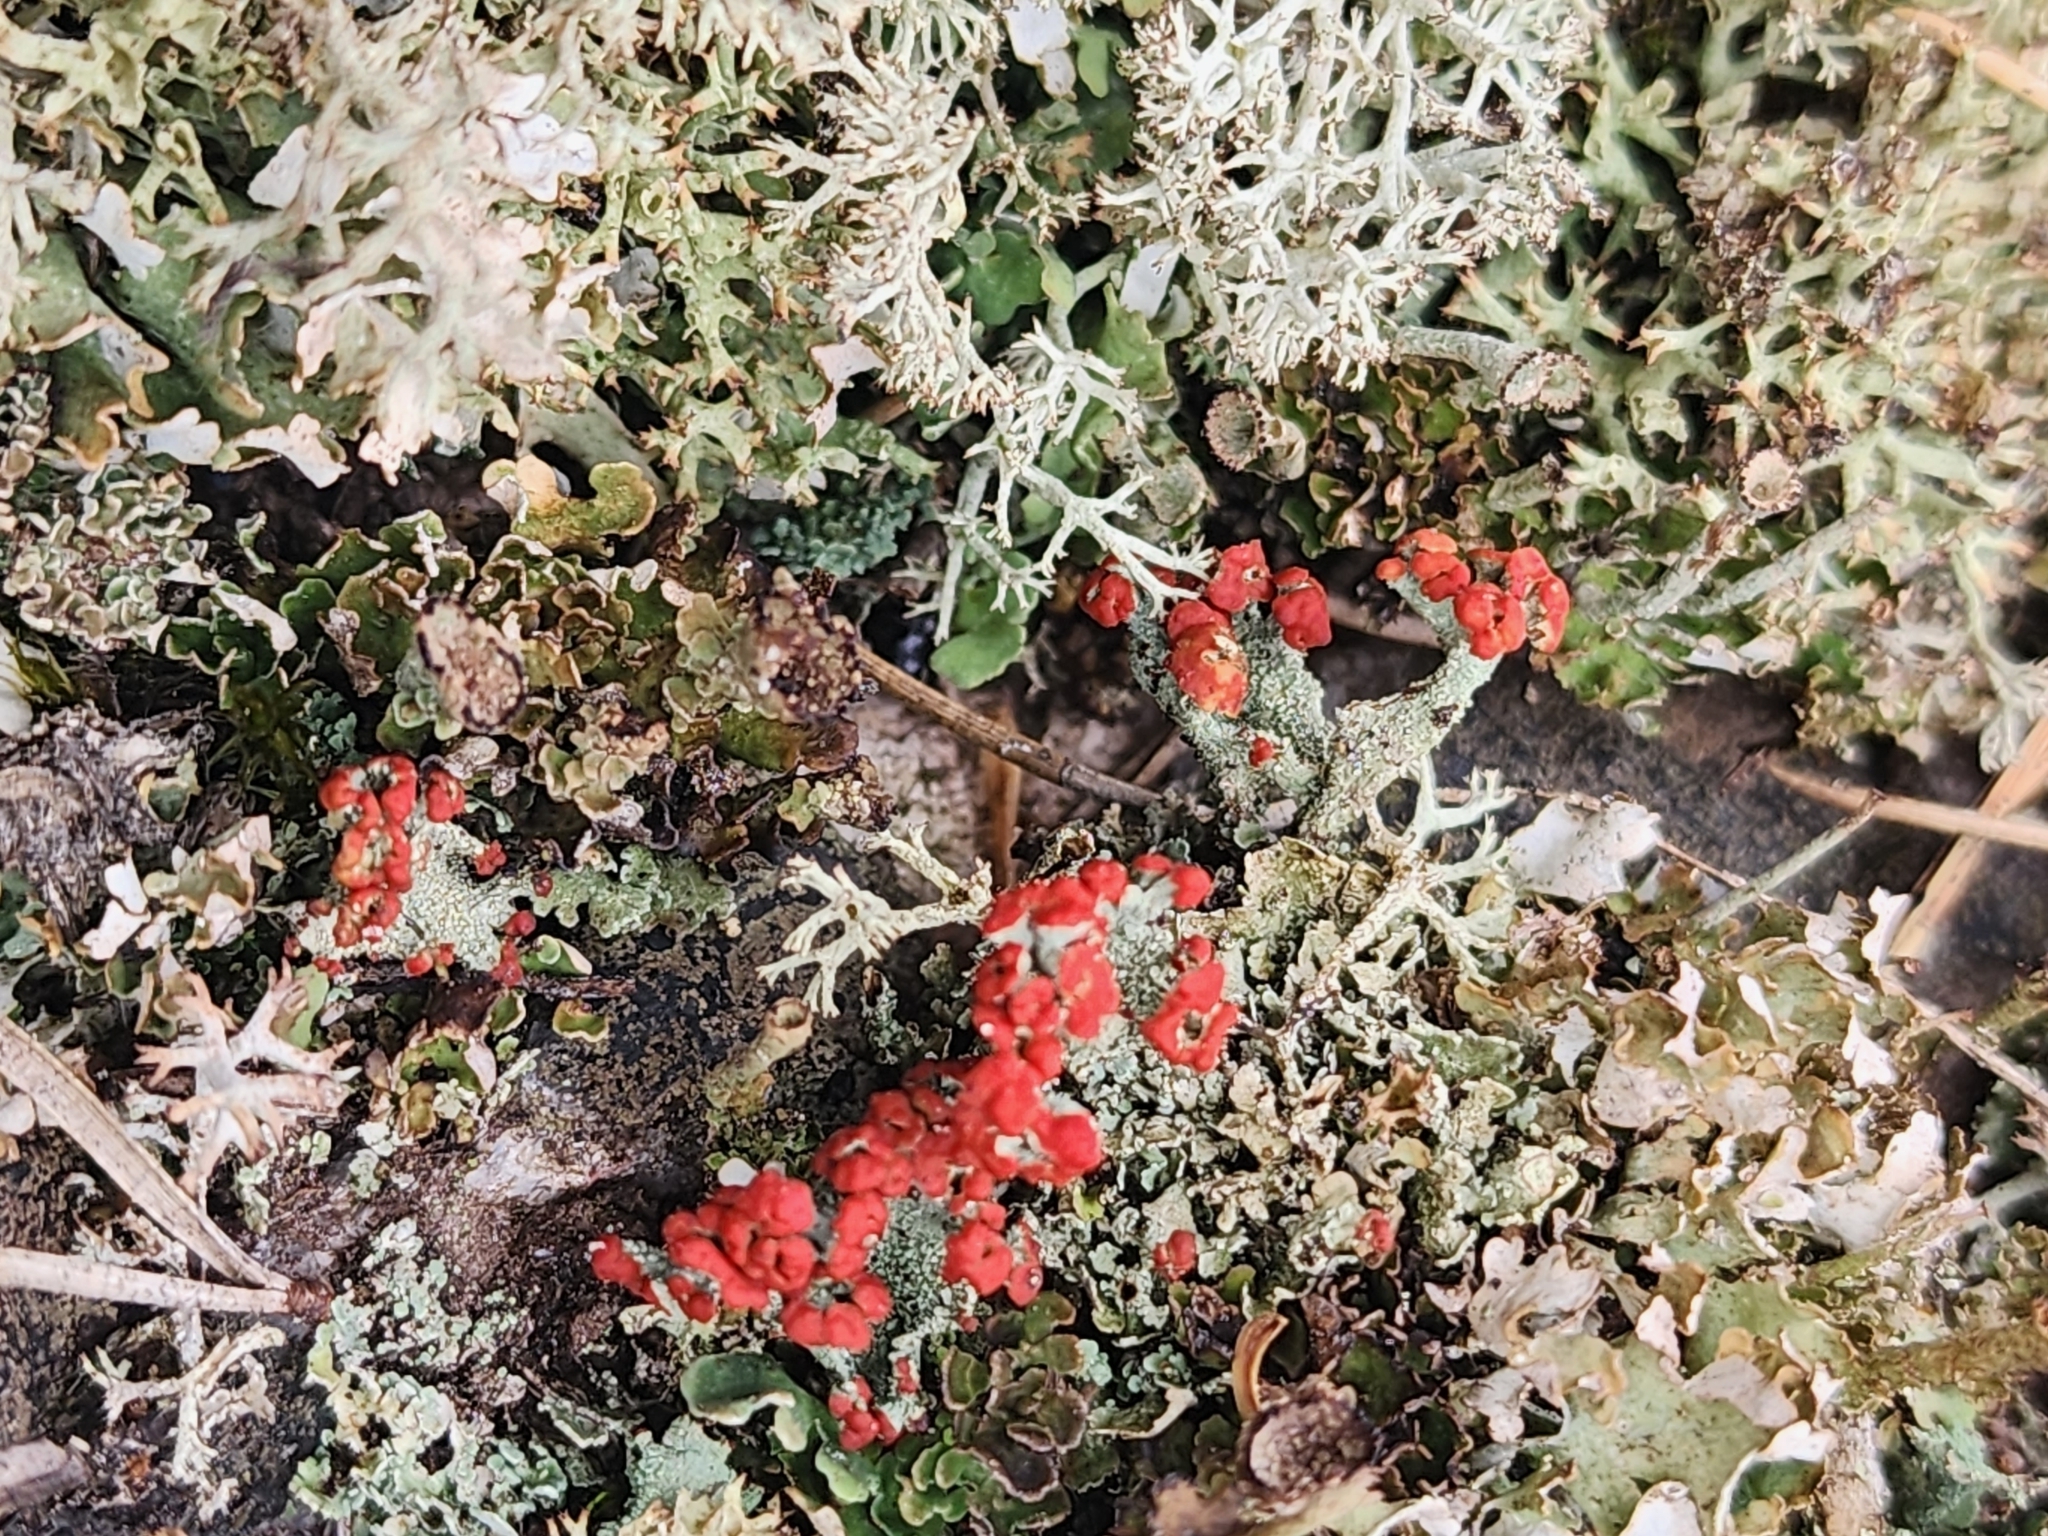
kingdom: Fungi
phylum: Ascomycota
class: Lecanoromycetes
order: Lecanorales
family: Cladoniaceae
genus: Cladonia
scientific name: Cladonia cristatella
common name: British soldier lichen
